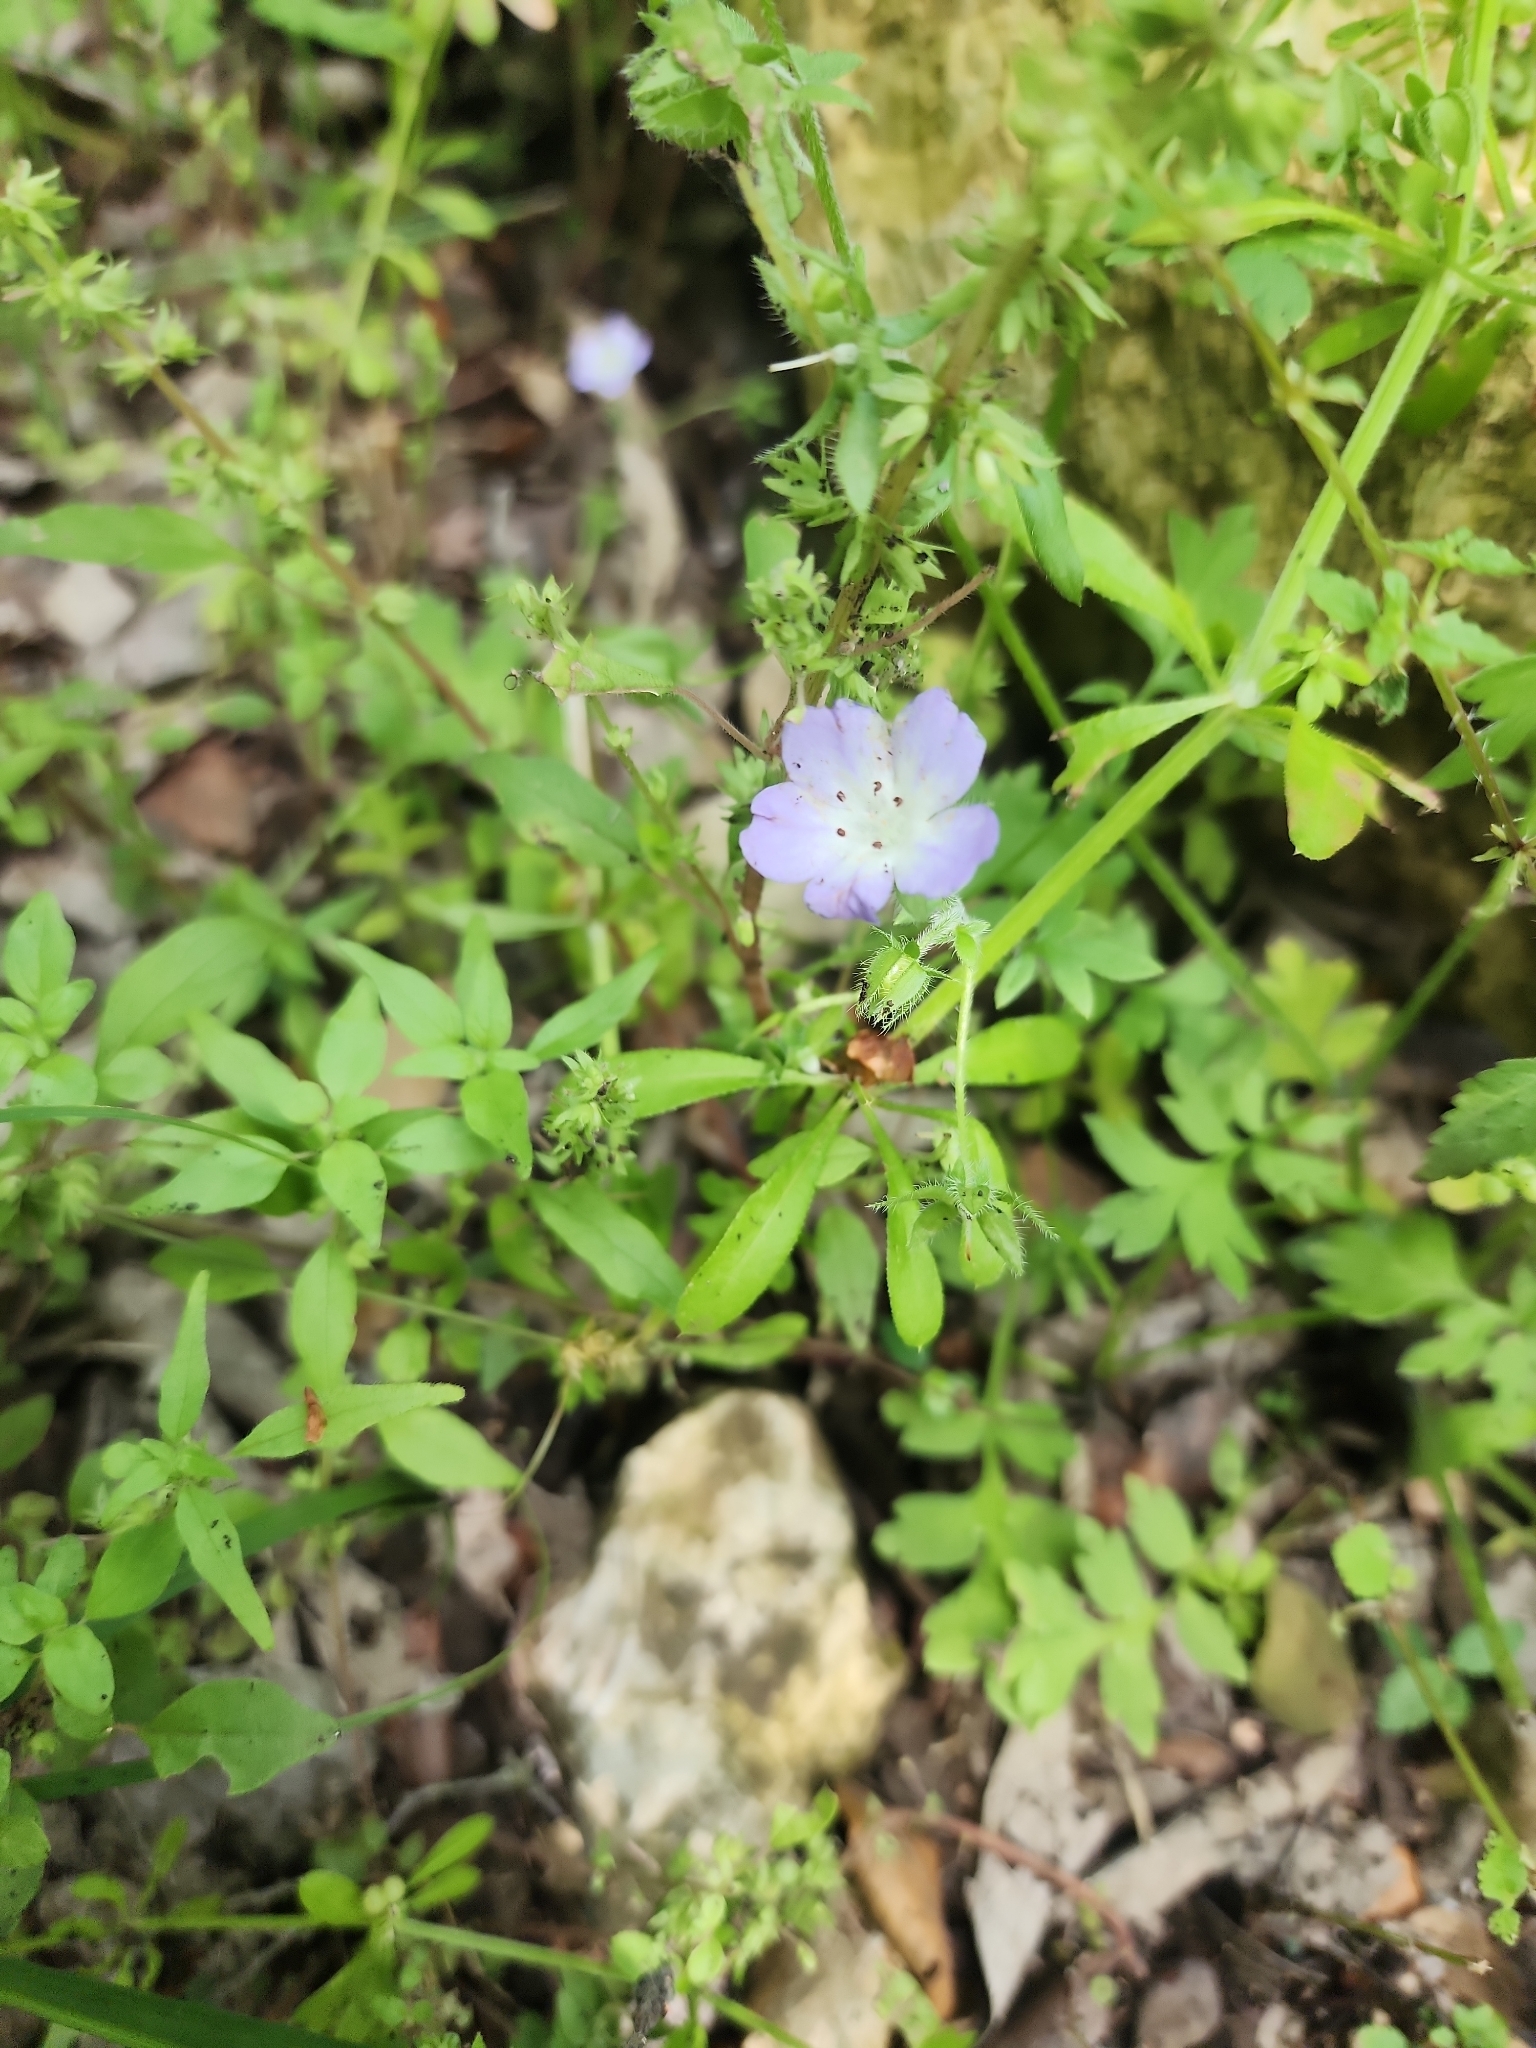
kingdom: Plantae
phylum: Tracheophyta
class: Magnoliopsida
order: Boraginales
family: Hydrophyllaceae
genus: Nemophila
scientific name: Nemophila phacelioides
